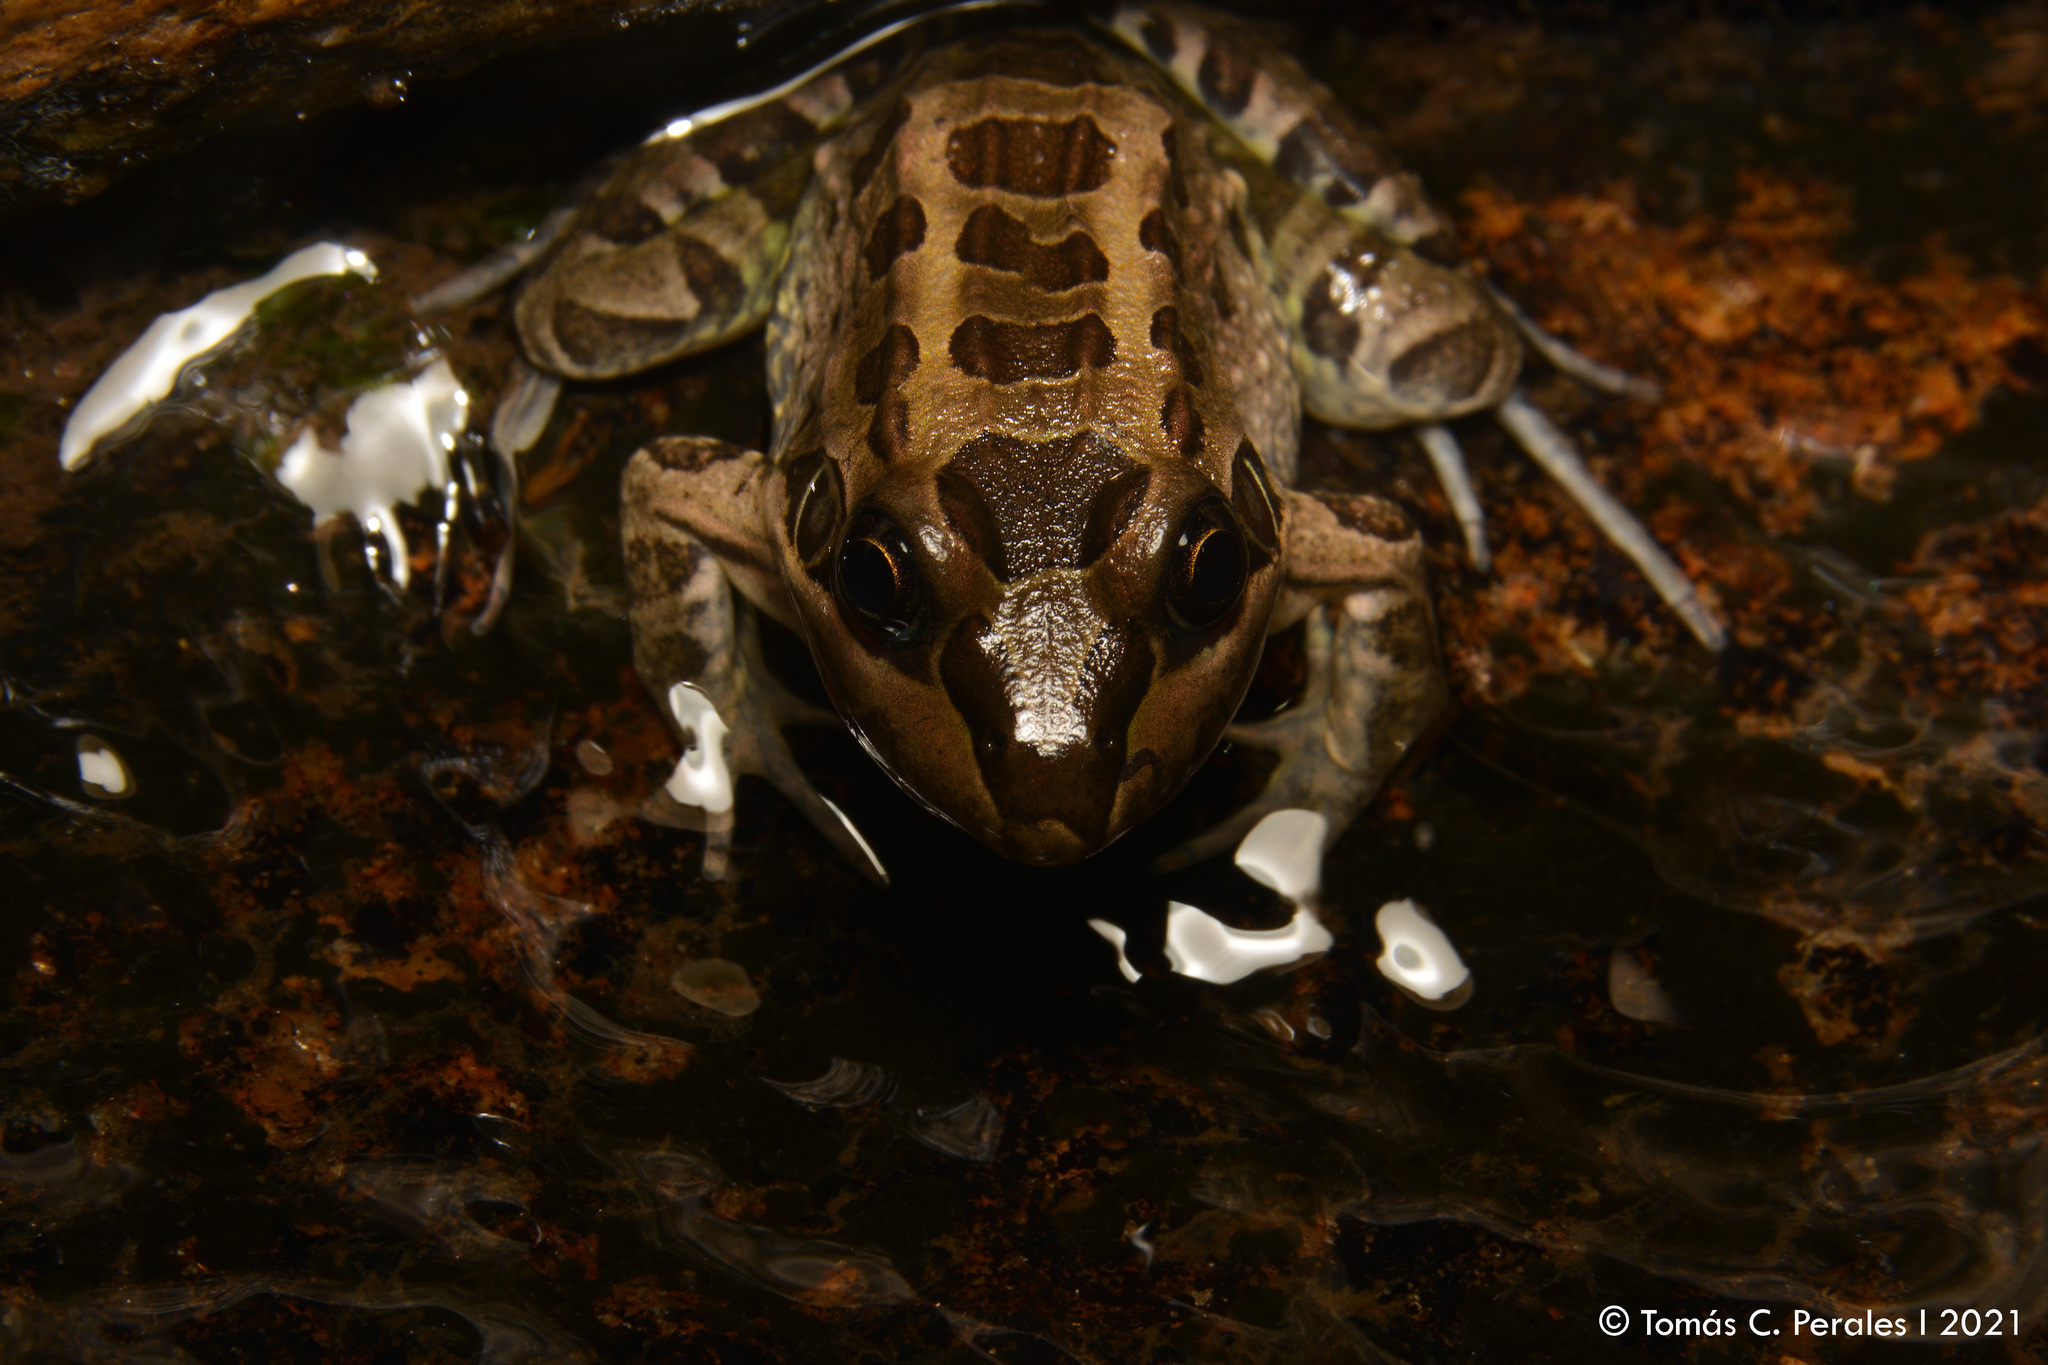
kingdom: Animalia
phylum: Chordata
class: Amphibia
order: Anura
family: Leptodactylidae
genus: Leptodactylus
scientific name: Leptodactylus luctator
